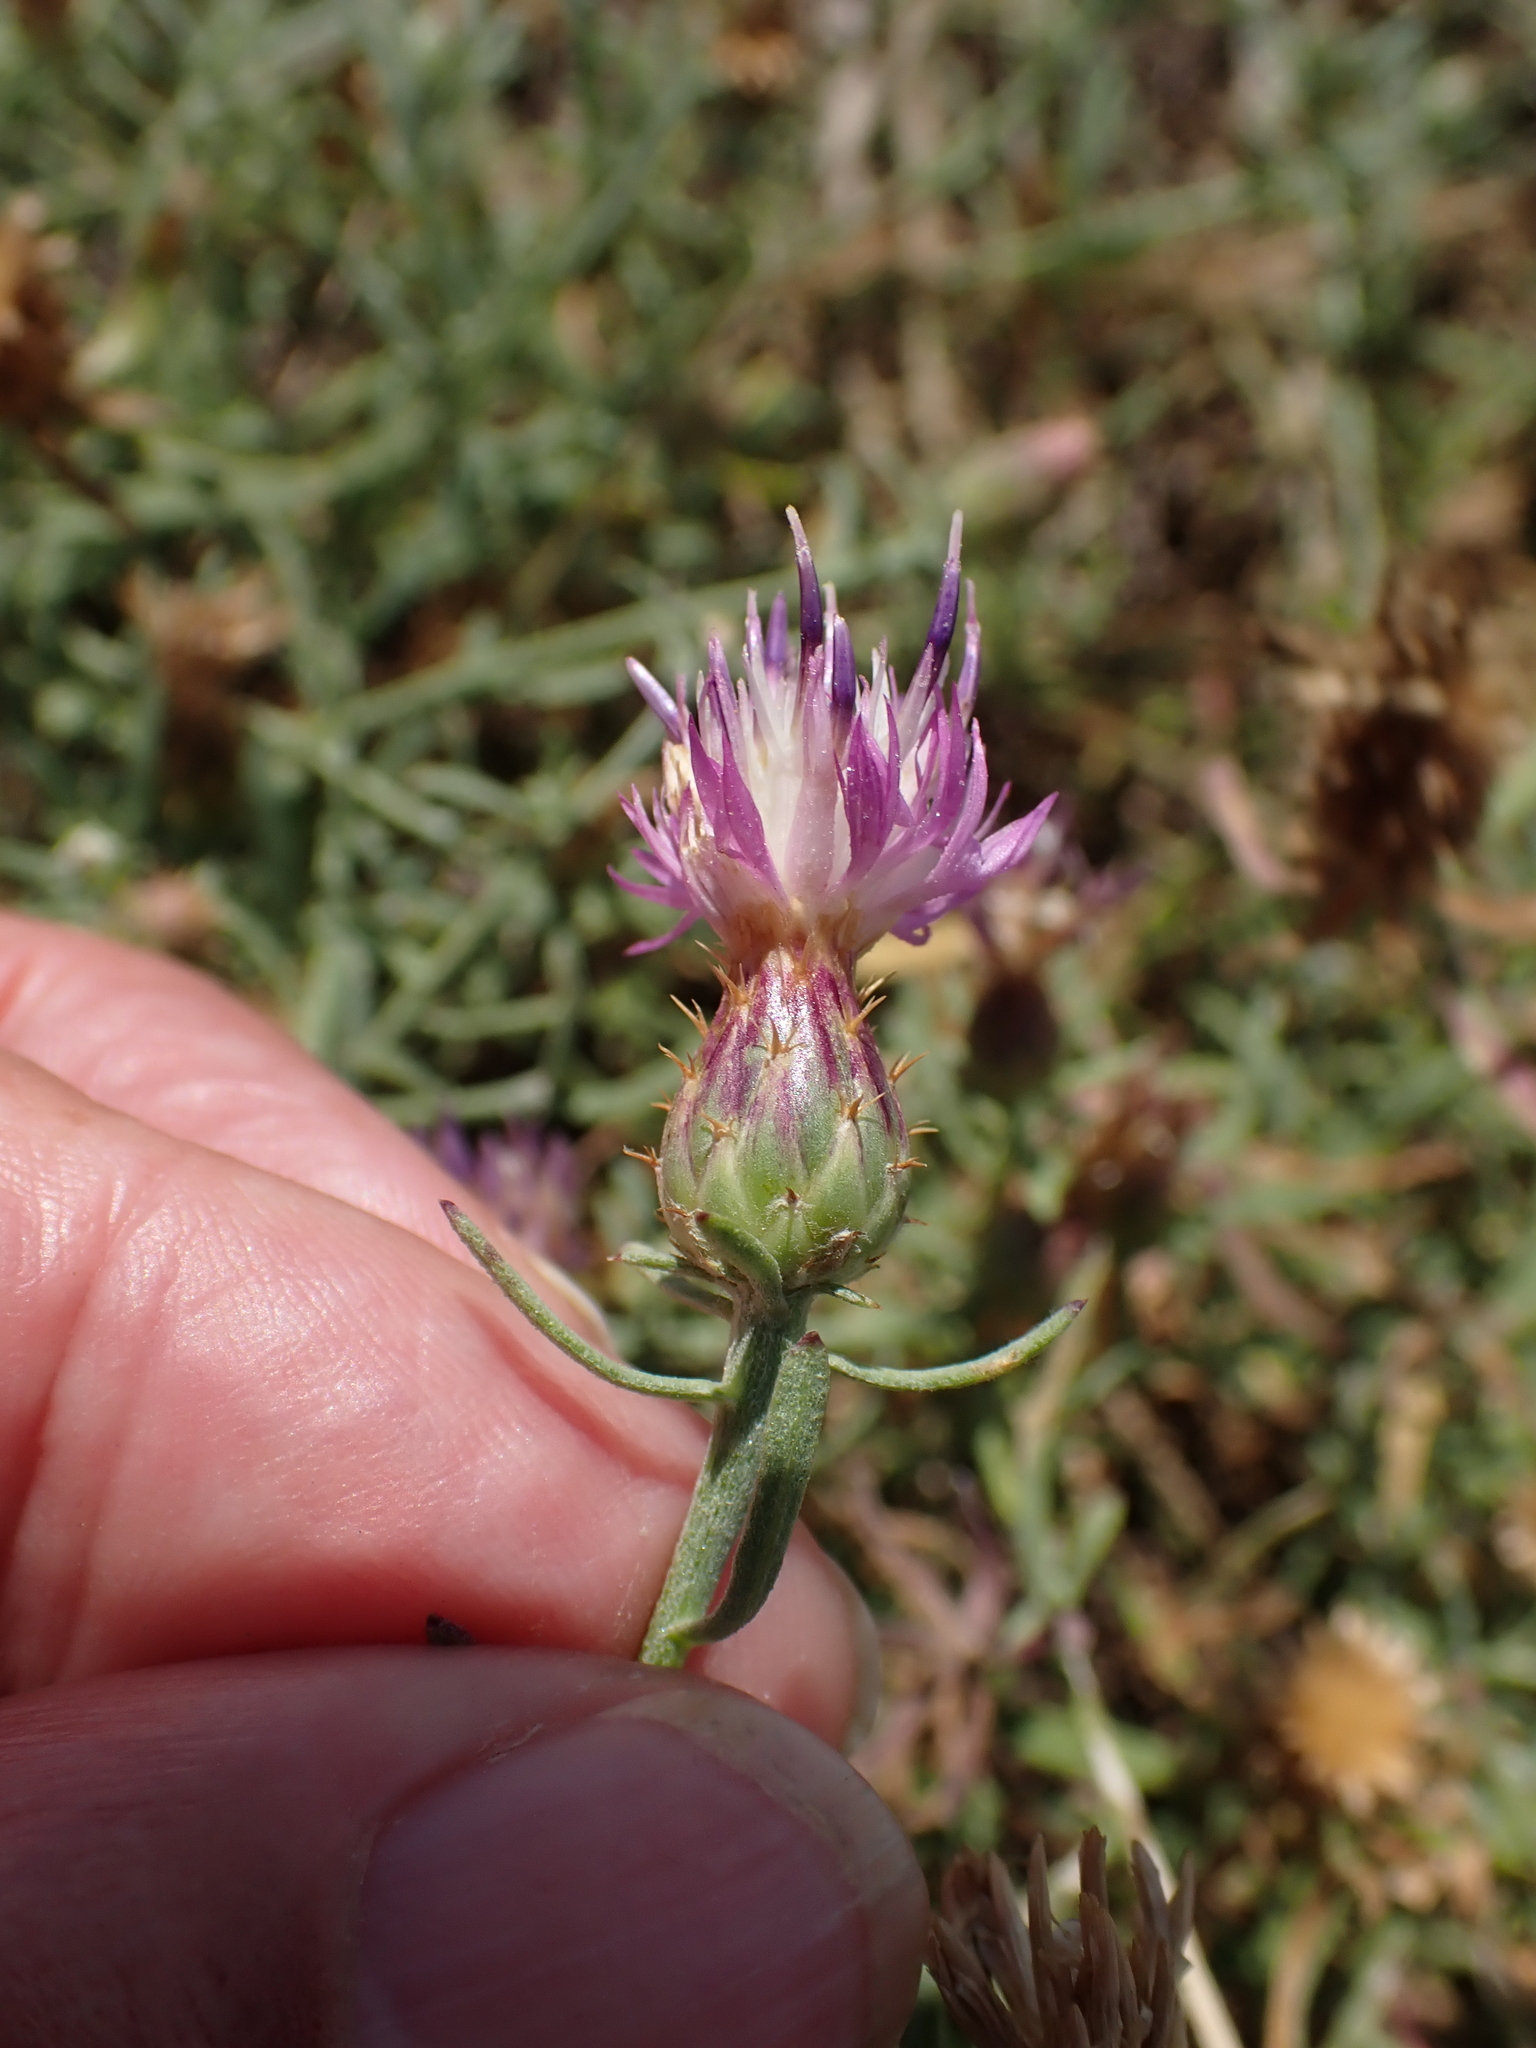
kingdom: Plantae
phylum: Tracheophyta
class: Magnoliopsida
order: Asterales
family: Asteraceae
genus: Centaurea
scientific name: Centaurea aspera
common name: Rough star-thistle
